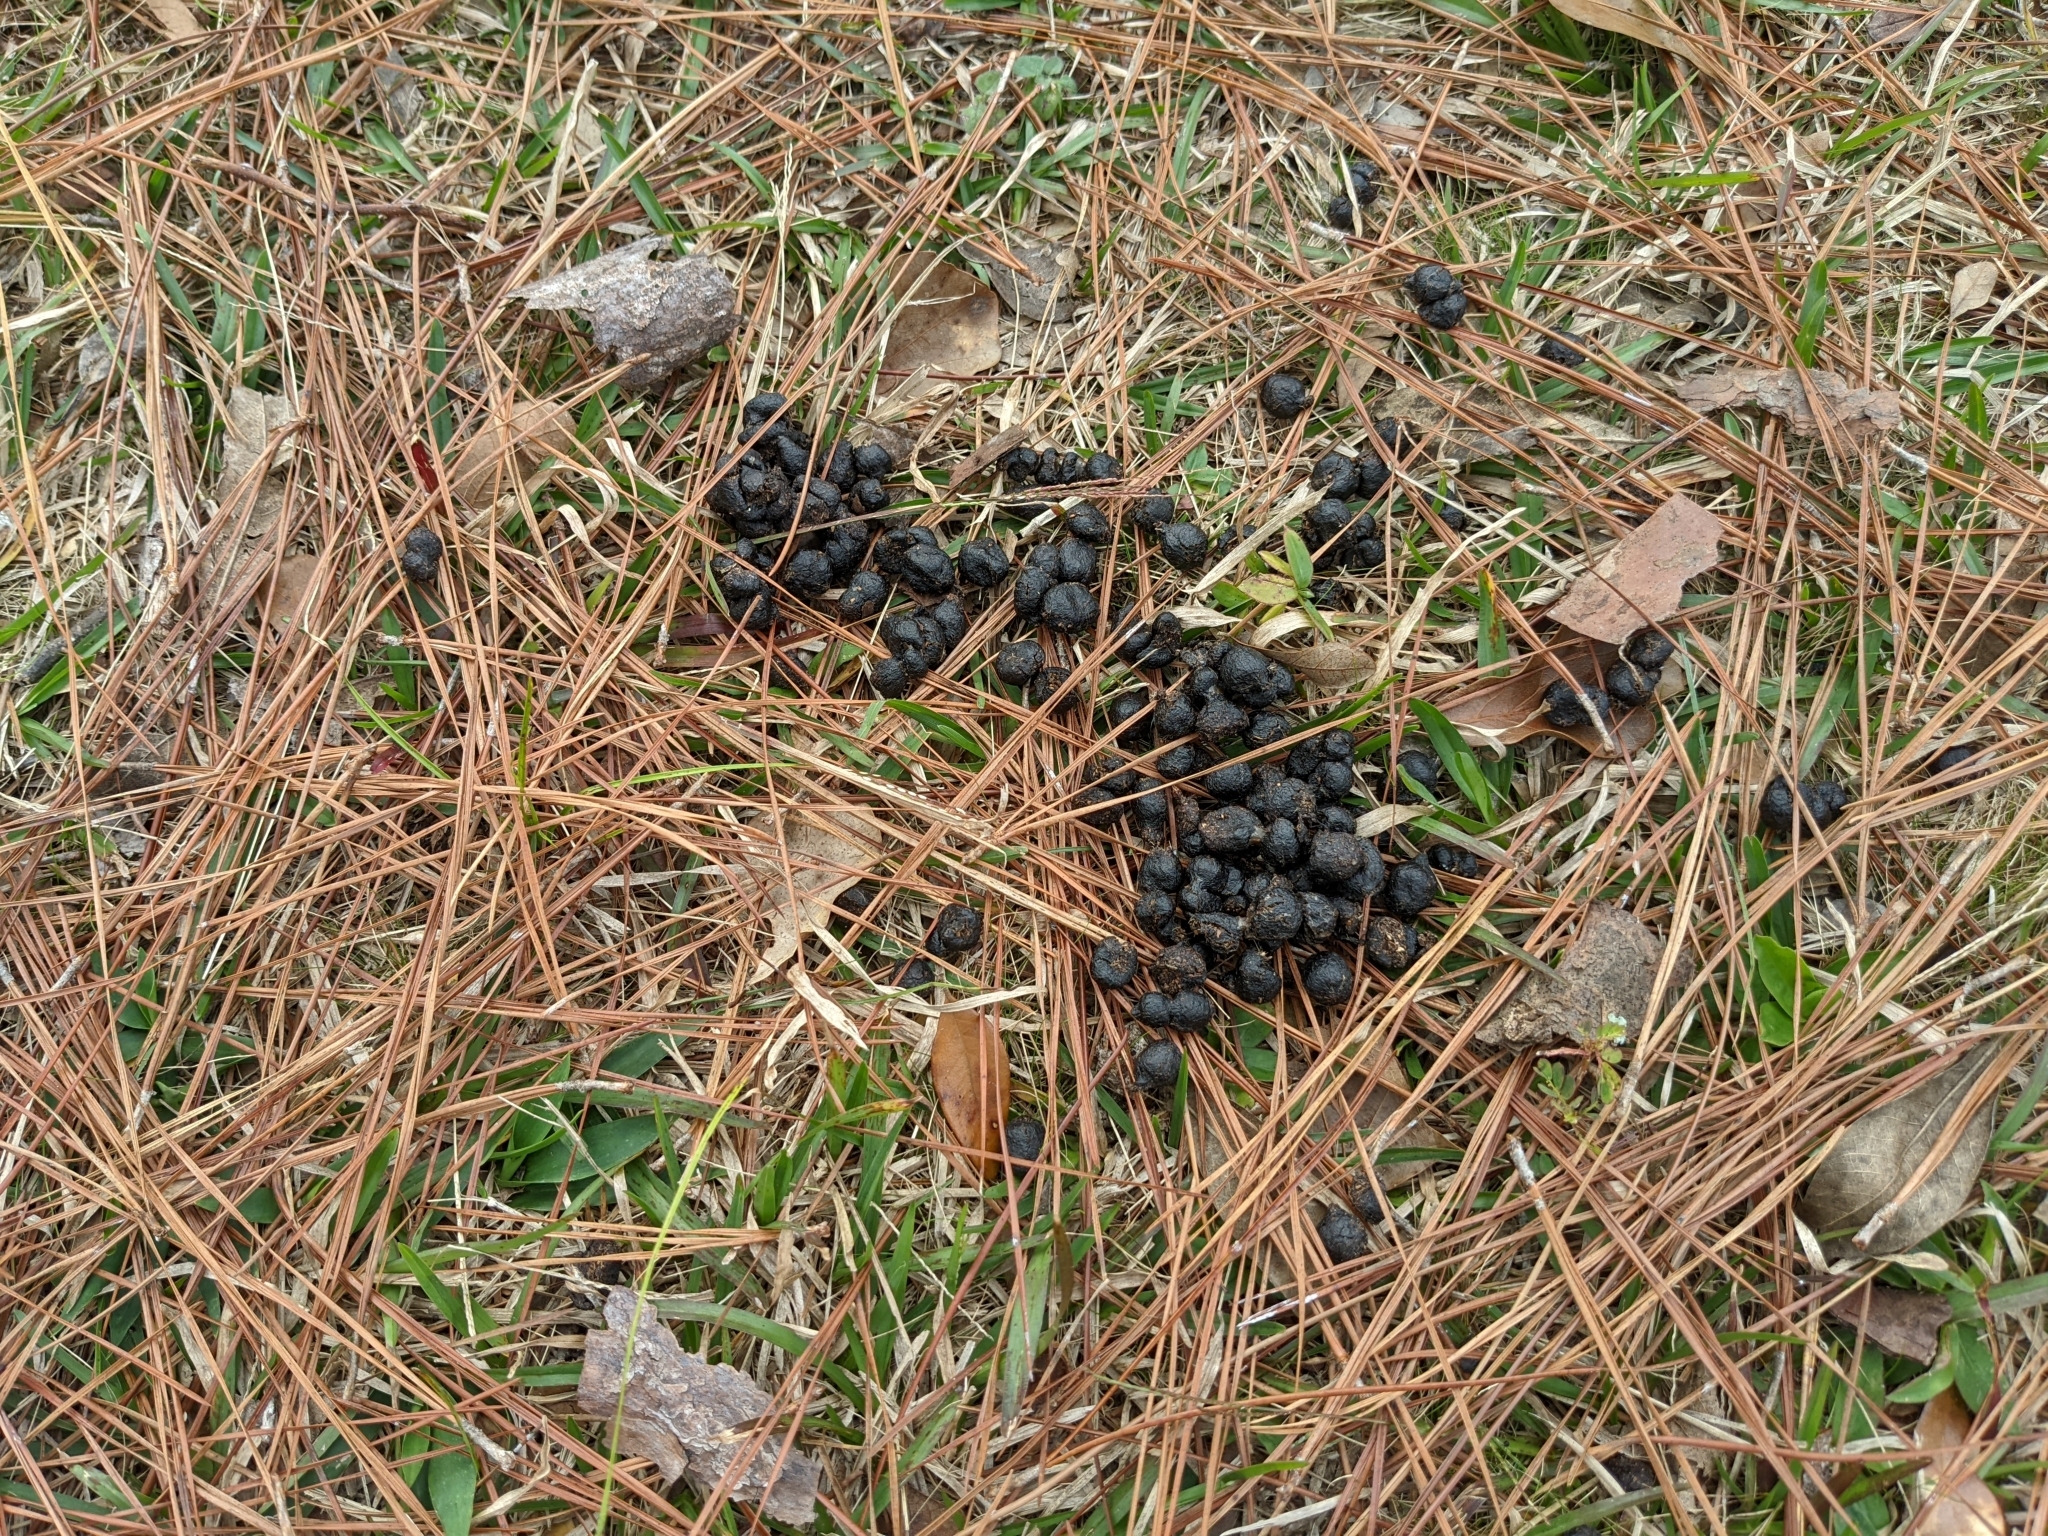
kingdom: Animalia
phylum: Chordata
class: Mammalia
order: Artiodactyla
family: Cervidae
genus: Odocoileus
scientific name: Odocoileus virginianus
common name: White-tailed deer
